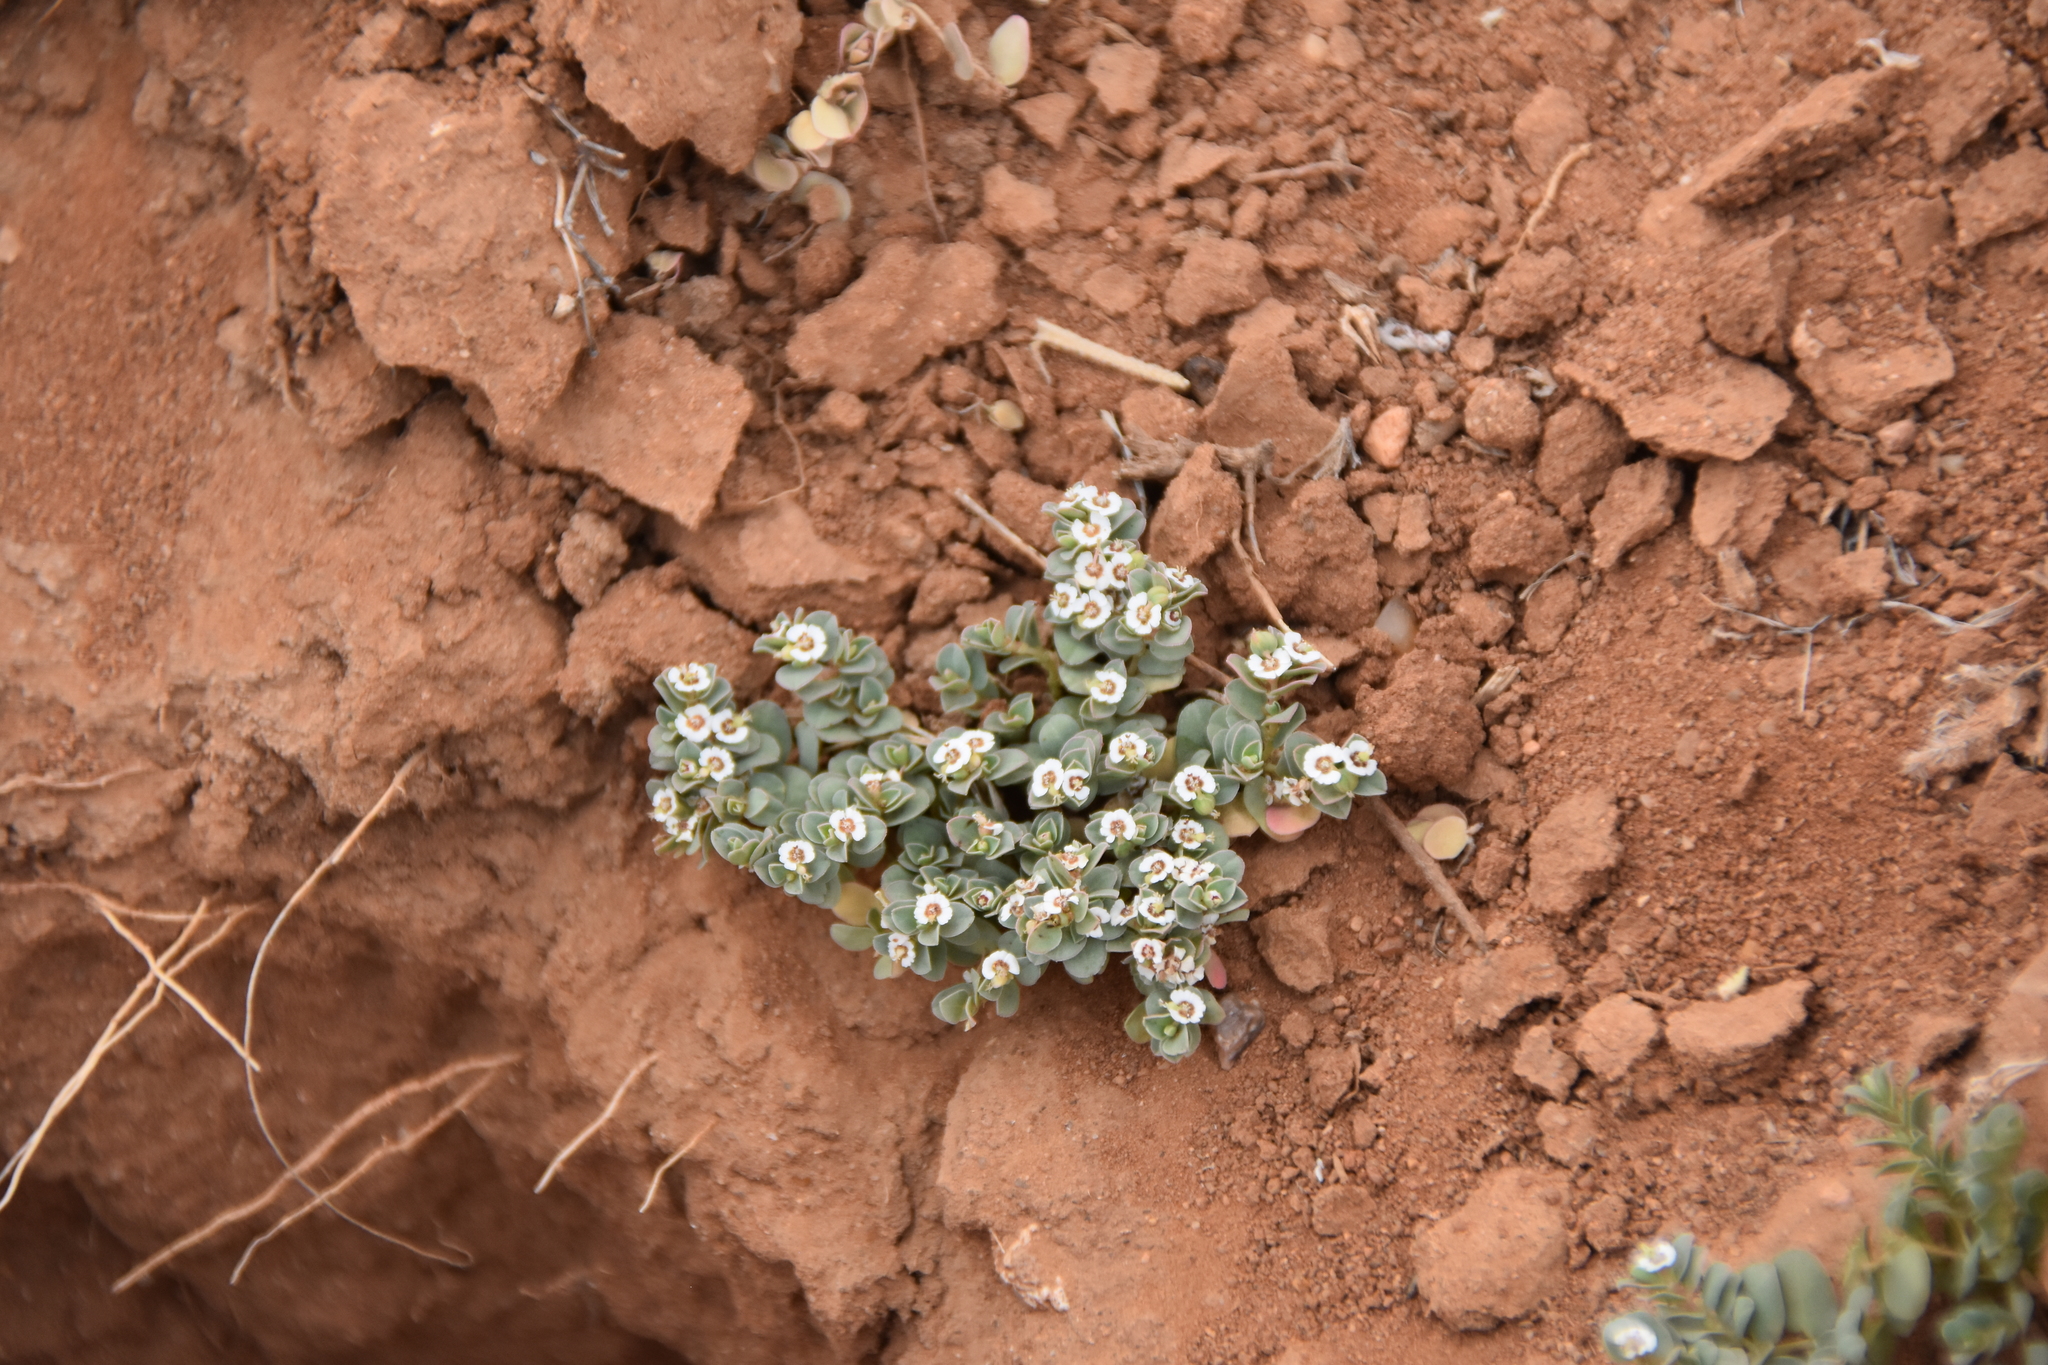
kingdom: Plantae
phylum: Tracheophyta
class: Magnoliopsida
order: Malpighiales
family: Euphorbiaceae
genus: Euphorbia
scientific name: Euphorbia albomarginata
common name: Whitemargin sandmat
